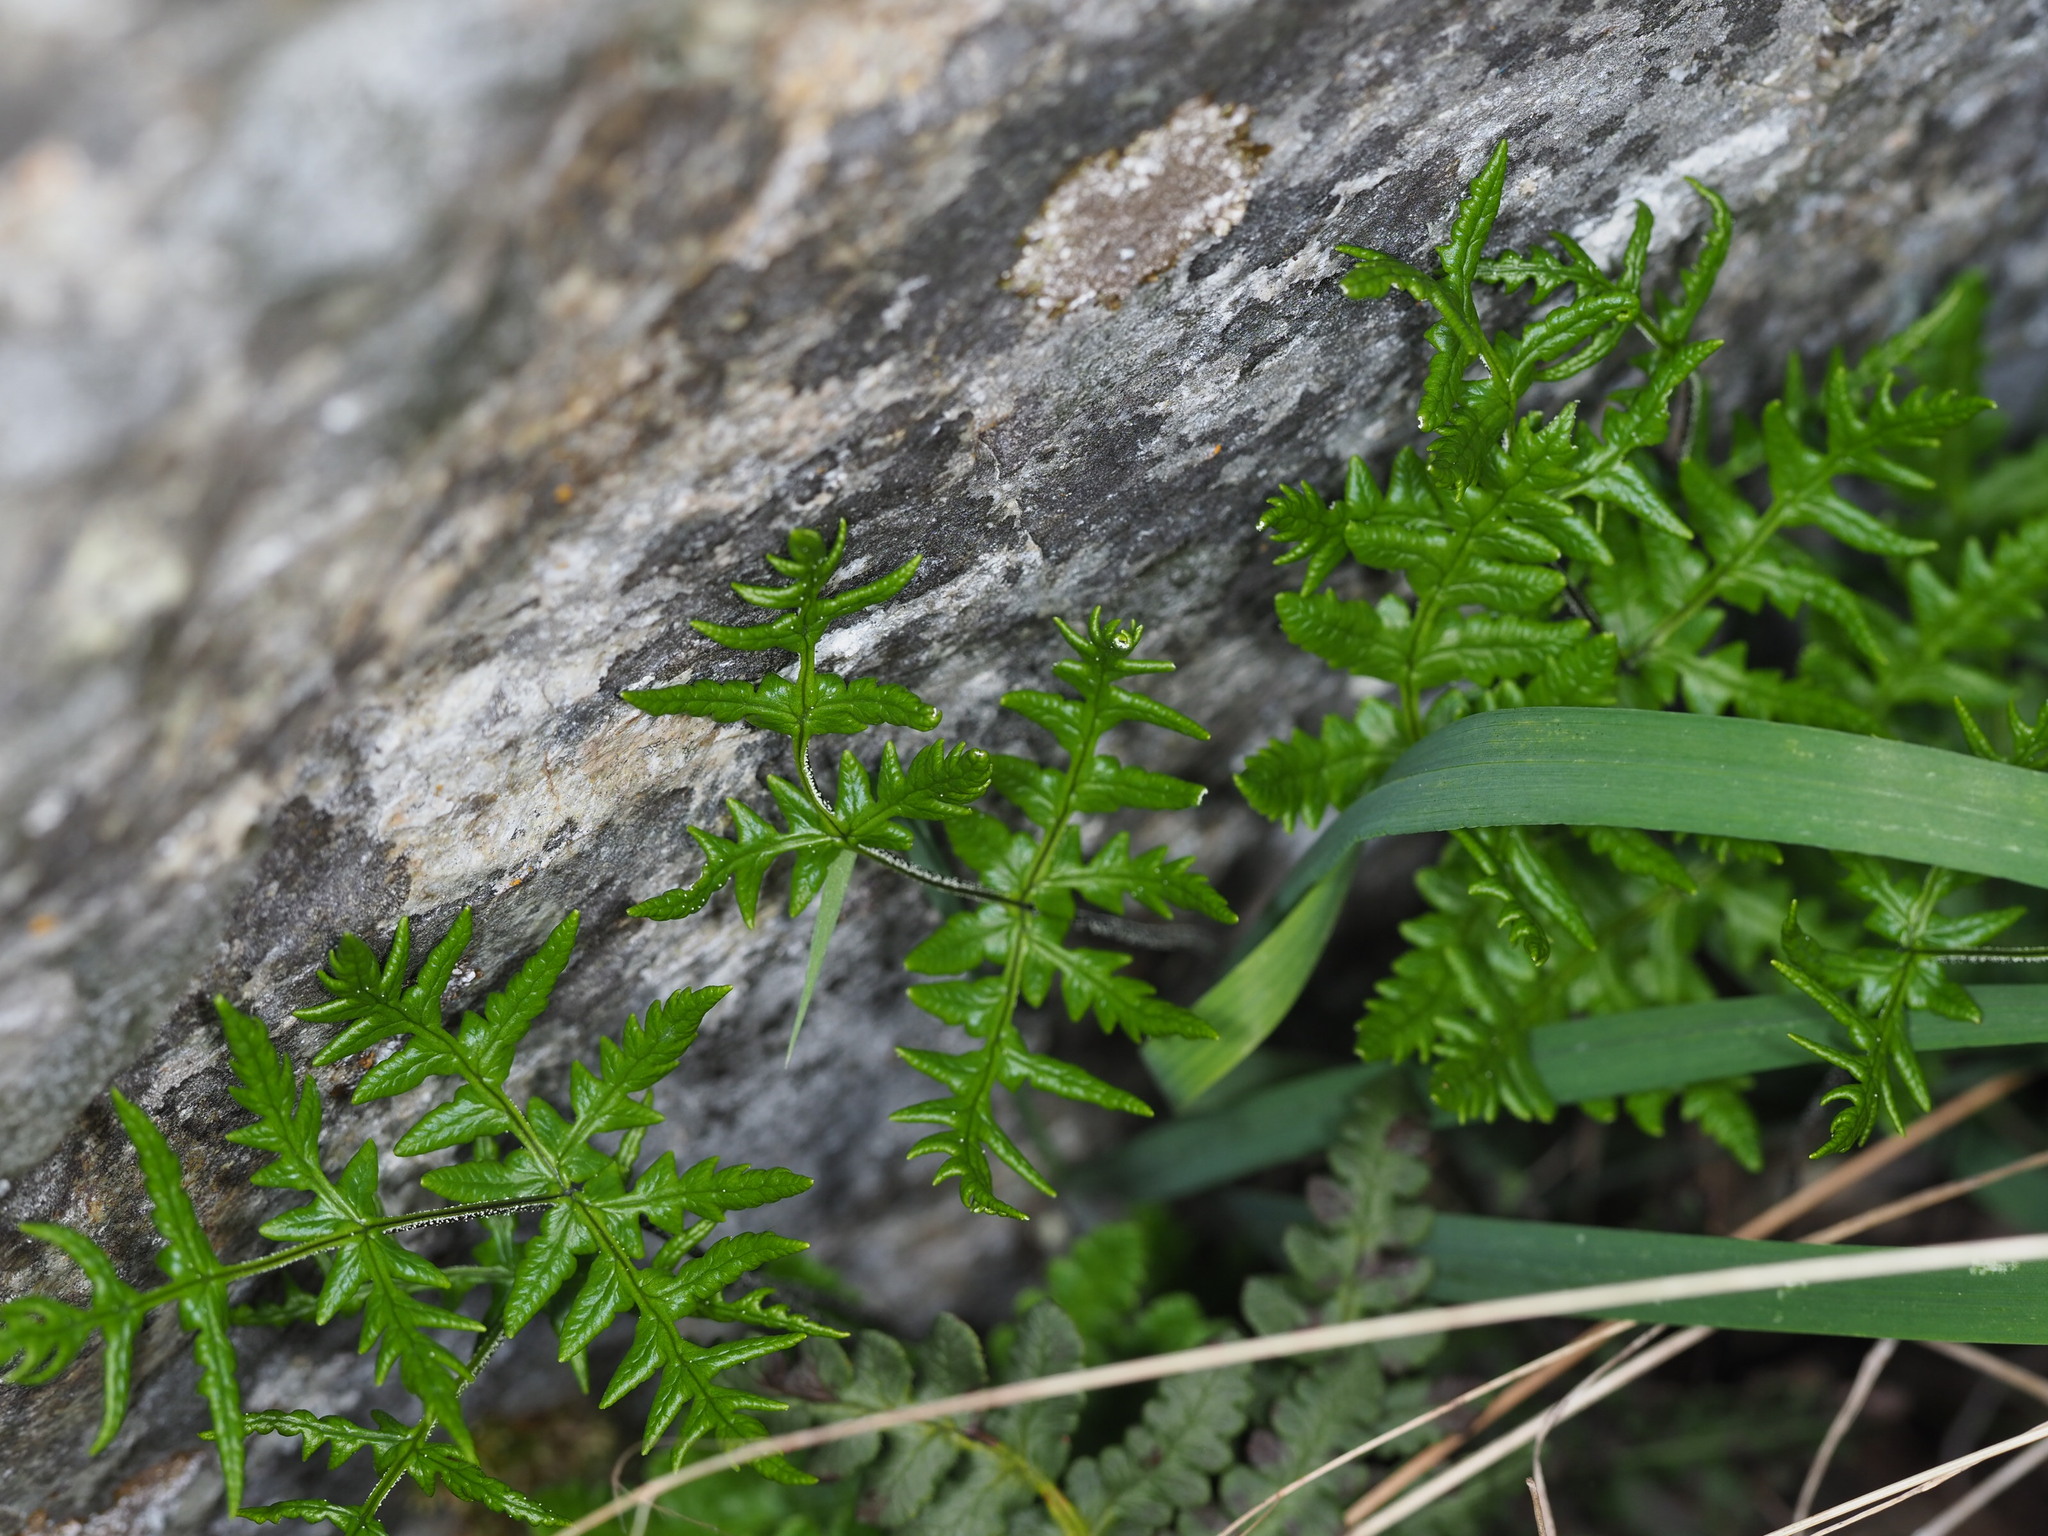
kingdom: Plantae
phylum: Tracheophyta
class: Polypodiopsida
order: Polypodiales
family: Pteridaceae
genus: Pentagramma
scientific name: Pentagramma triangularis
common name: Gold fern
